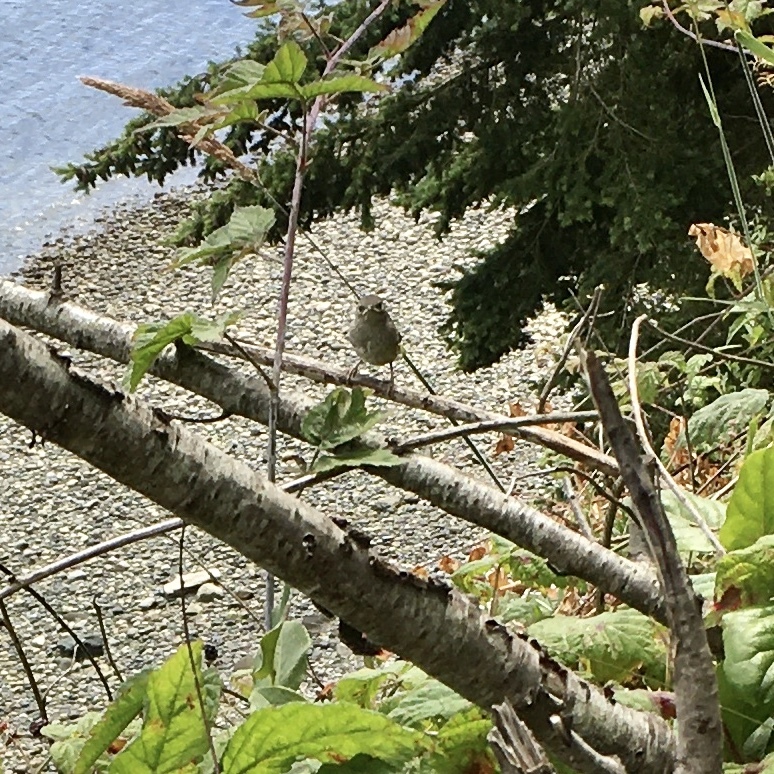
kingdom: Animalia
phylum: Chordata
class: Aves
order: Passeriformes
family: Troglodytidae
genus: Troglodytes
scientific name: Troglodytes aedon
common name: House wren
